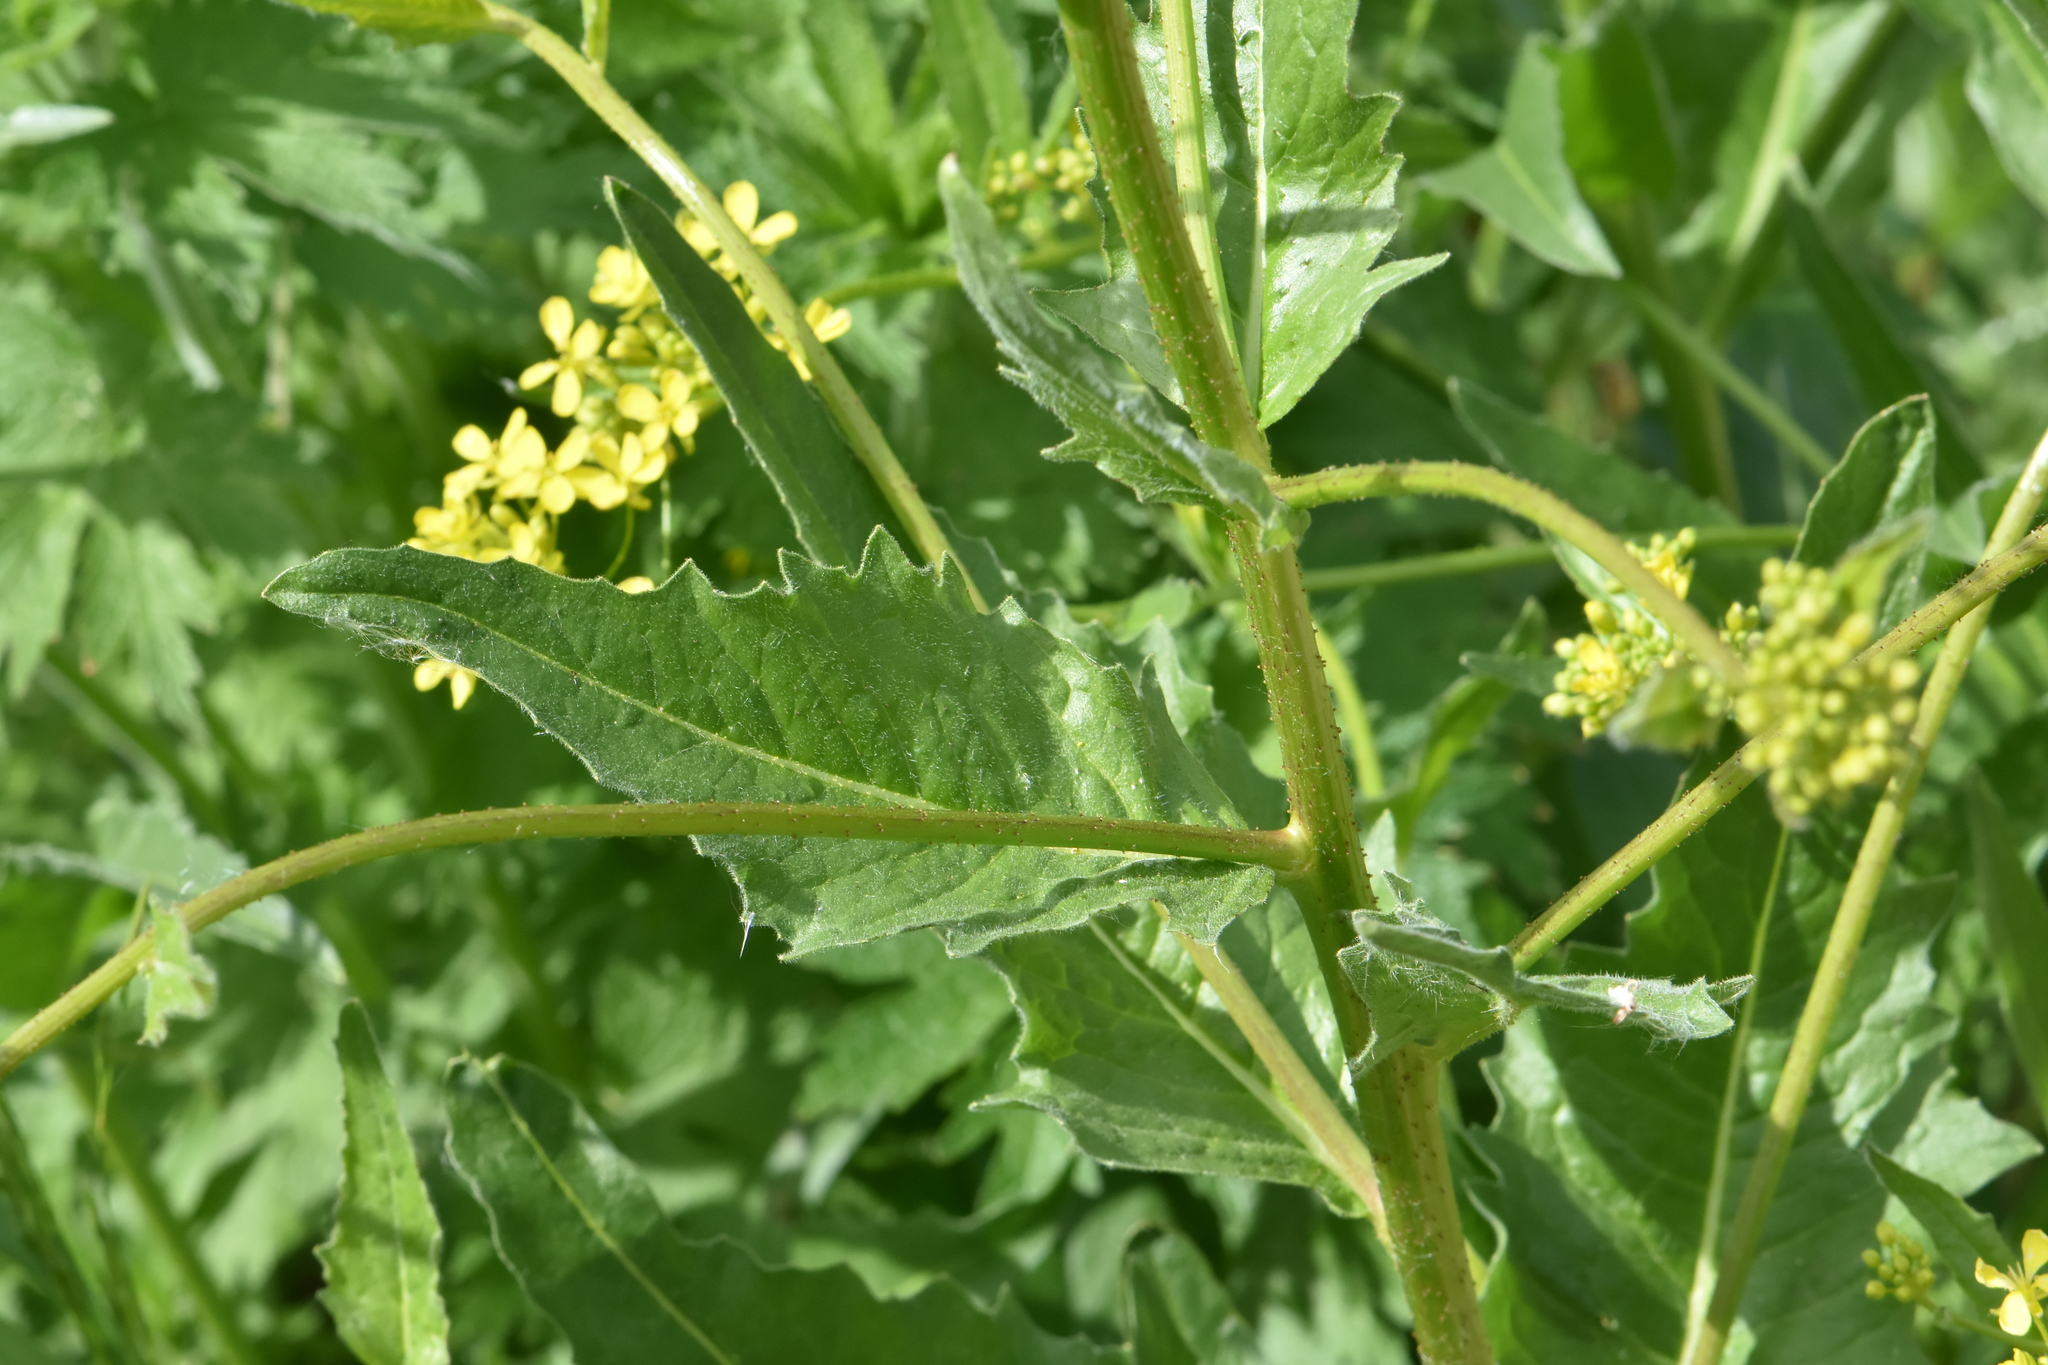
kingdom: Plantae
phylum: Tracheophyta
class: Magnoliopsida
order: Brassicales
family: Brassicaceae
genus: Bunias
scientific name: Bunias orientalis
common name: Warty-cabbage
